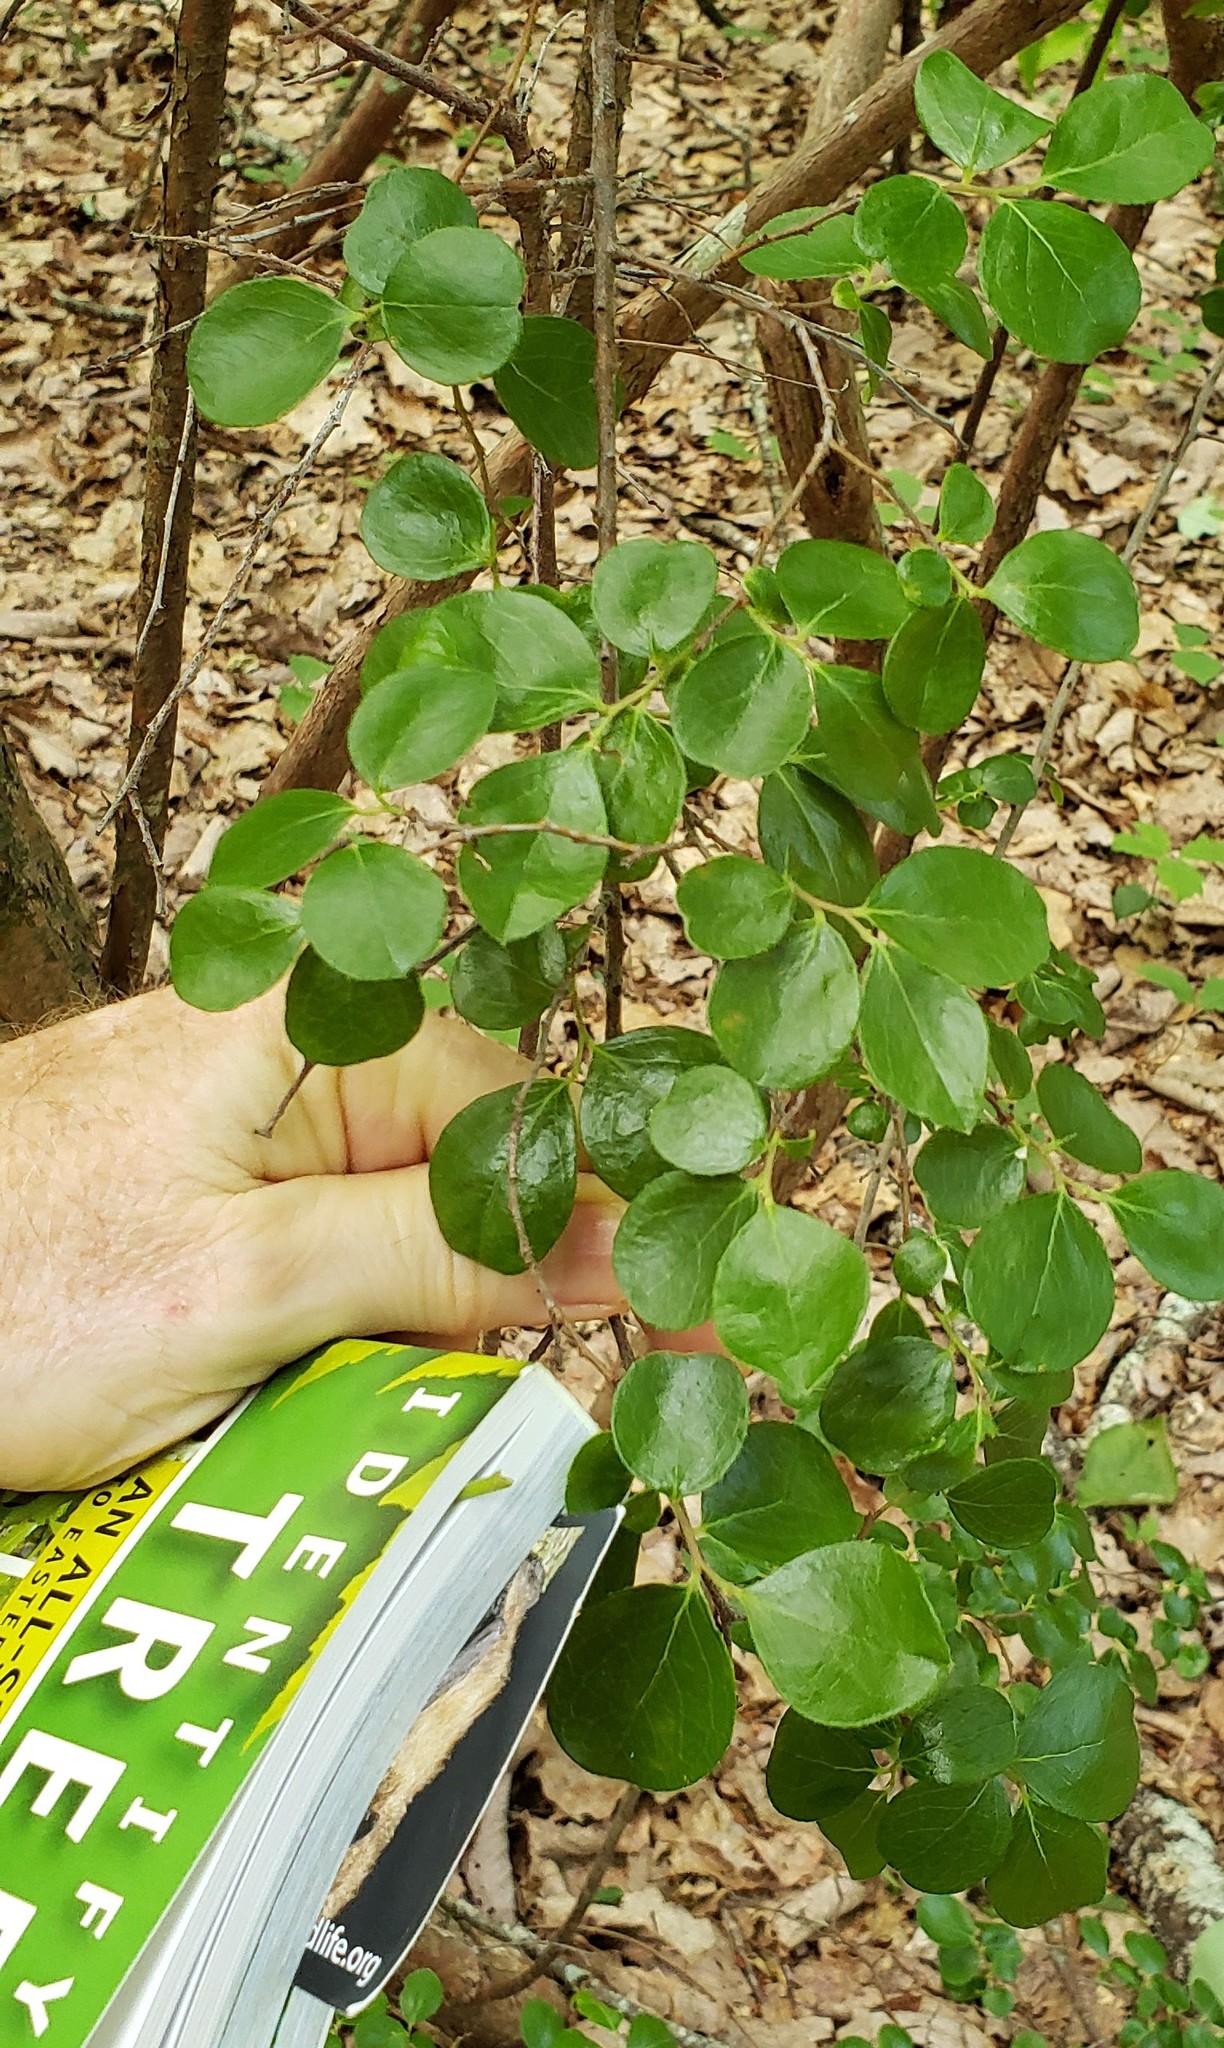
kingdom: Plantae
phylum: Tracheophyta
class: Magnoliopsida
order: Ericales
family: Ericaceae
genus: Vaccinium
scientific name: Vaccinium arboreum
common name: Farkleberry
